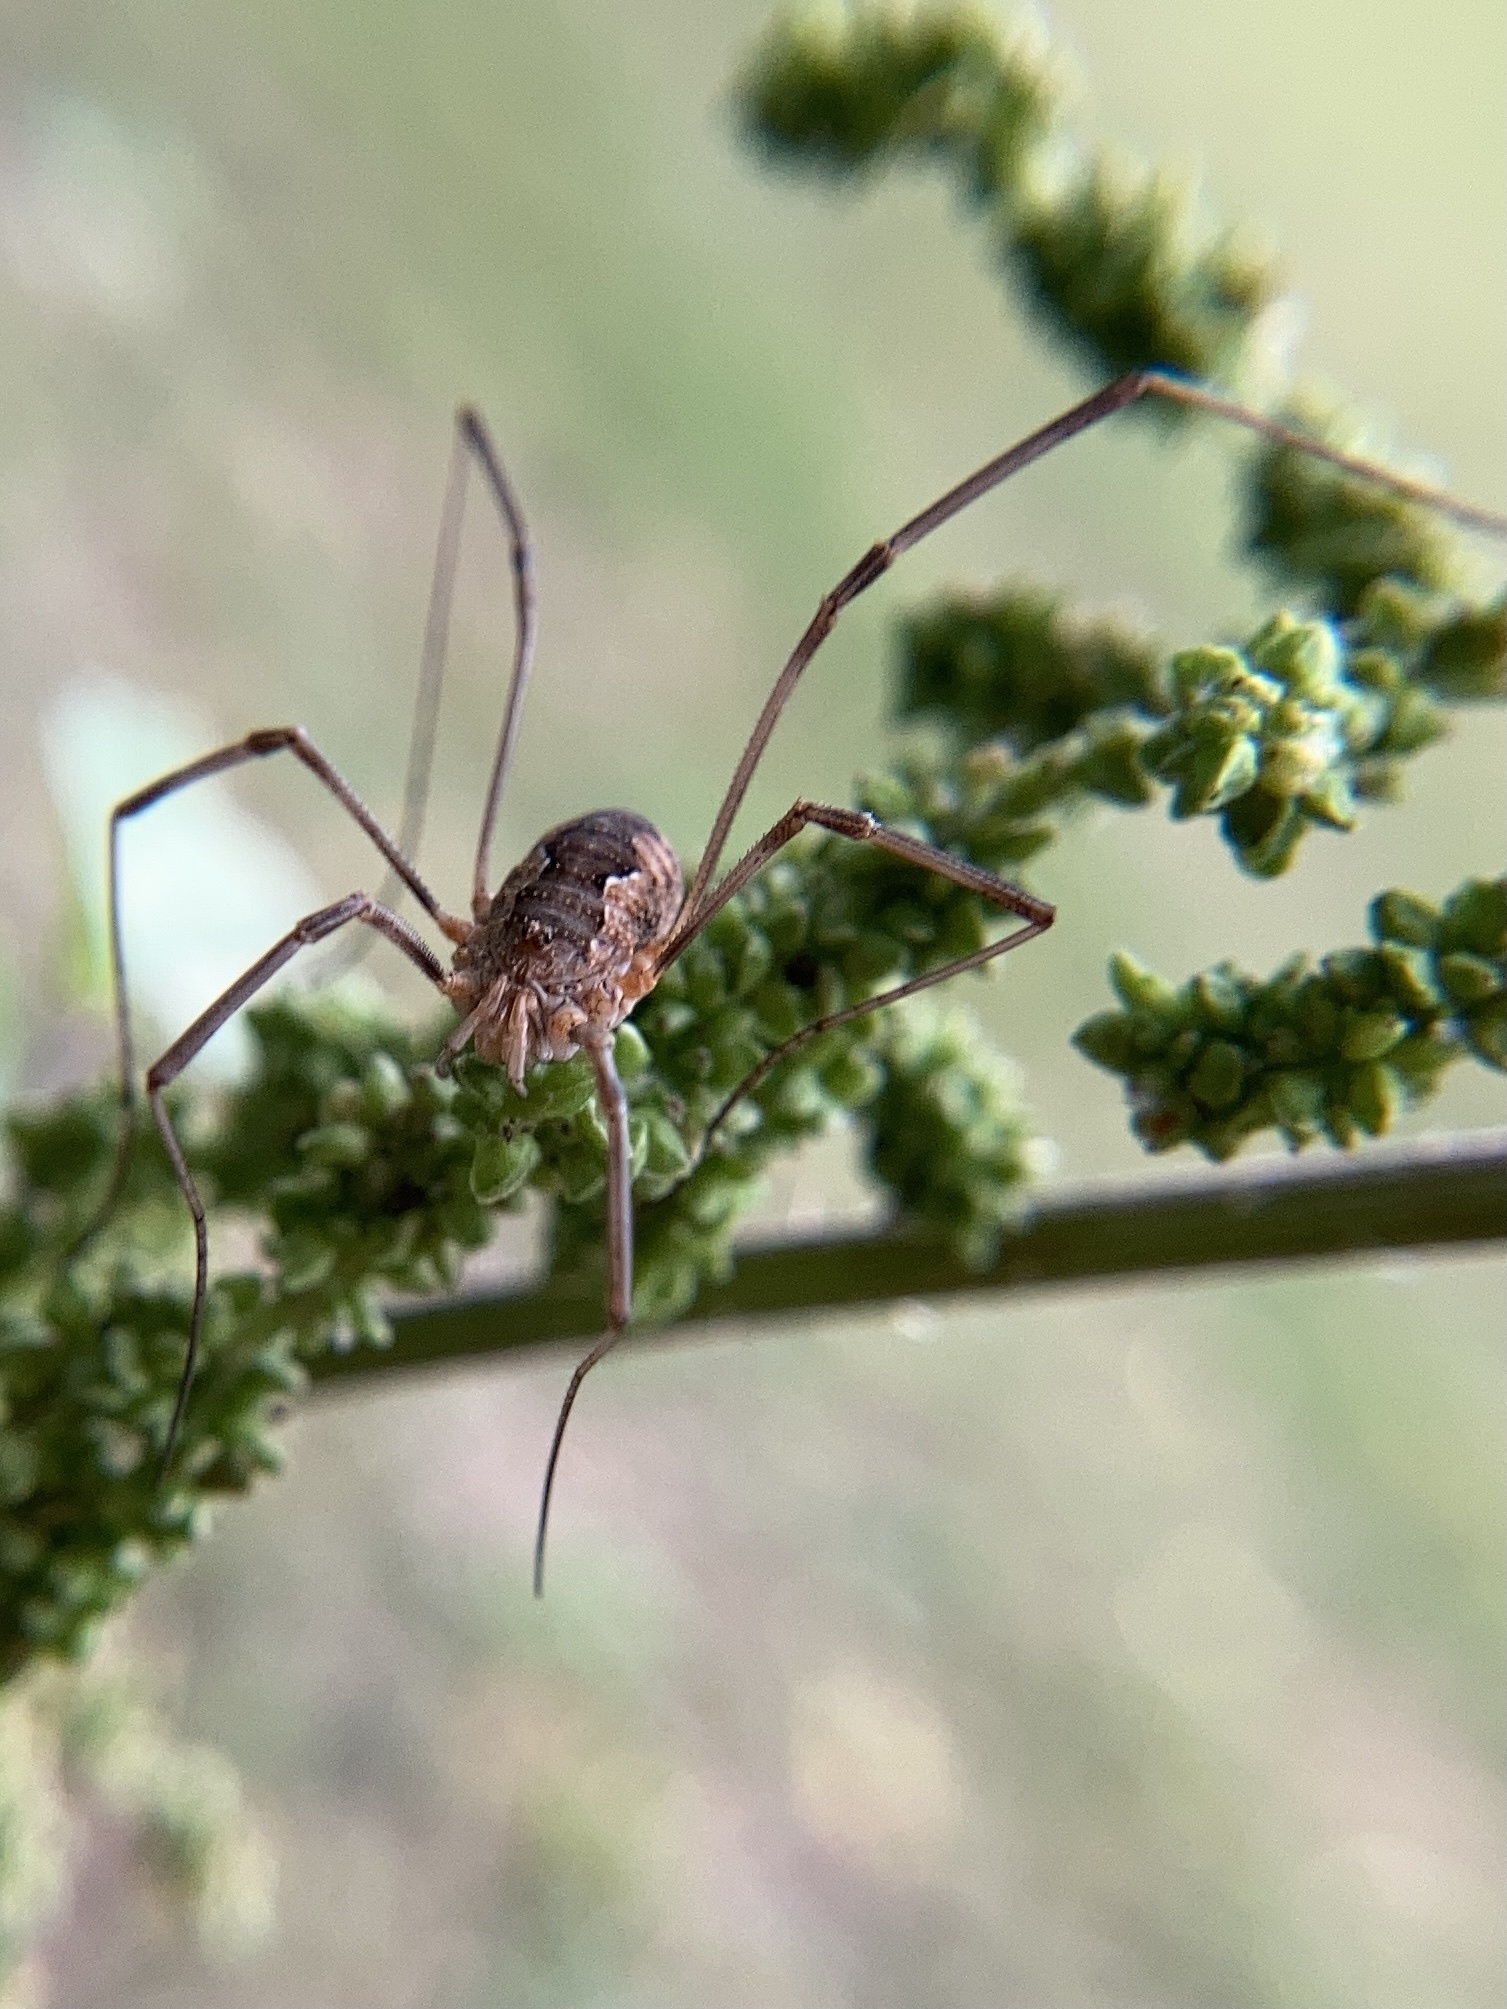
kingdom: Animalia
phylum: Arthropoda
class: Arachnida
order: Opiliones
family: Phalangiidae
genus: Phalangium
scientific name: Phalangium opilio
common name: Daddy longleg
